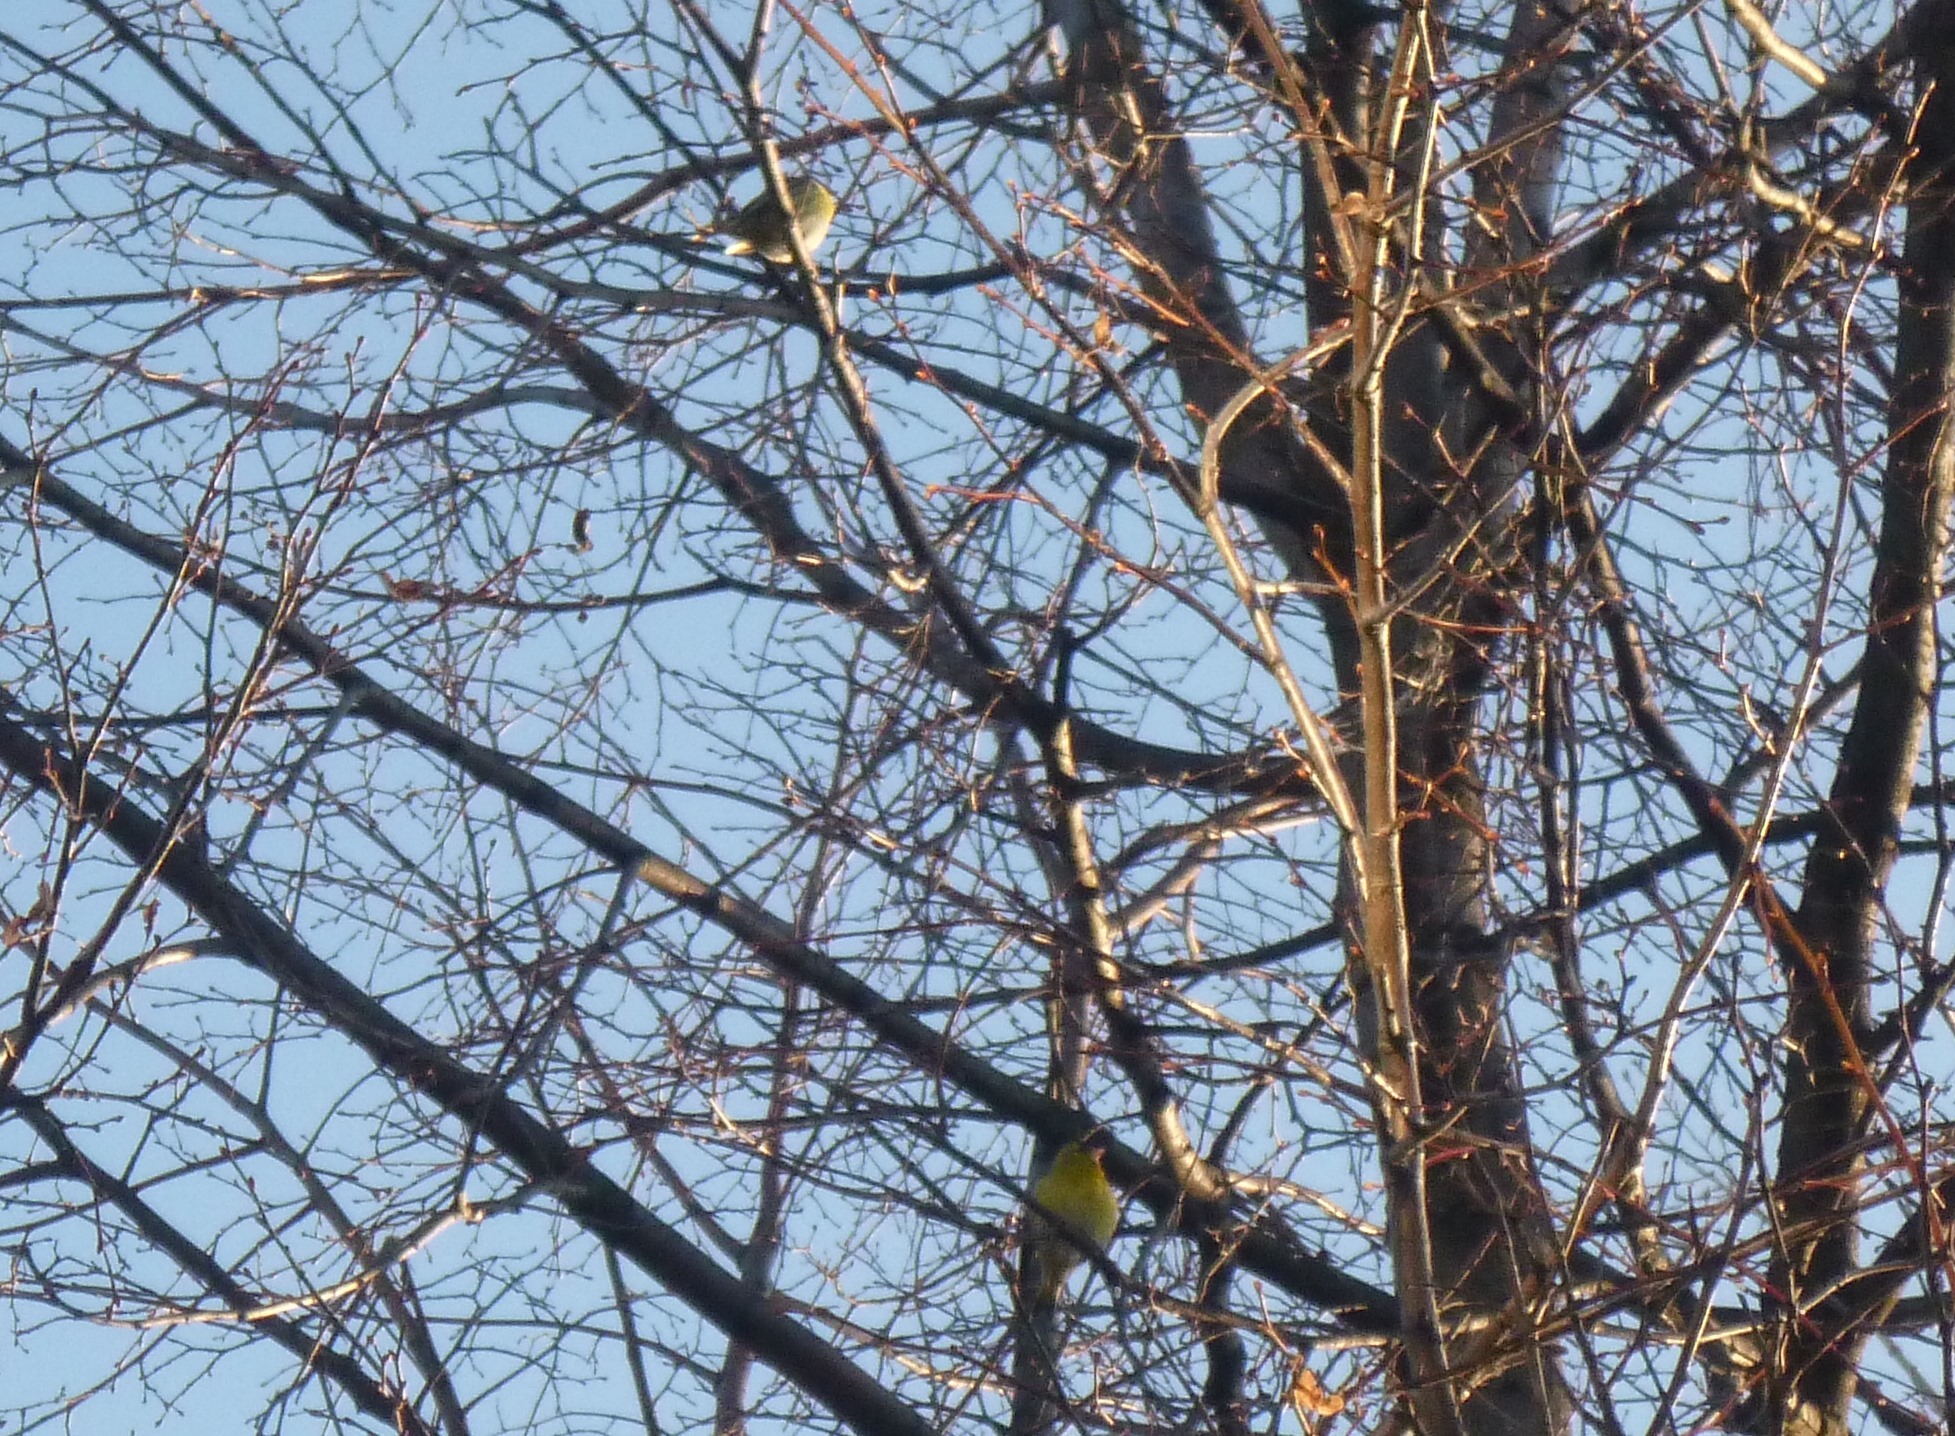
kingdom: Animalia
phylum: Chordata
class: Aves
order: Passeriformes
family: Fringillidae
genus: Spinus
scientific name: Spinus spinus
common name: Eurasian siskin
